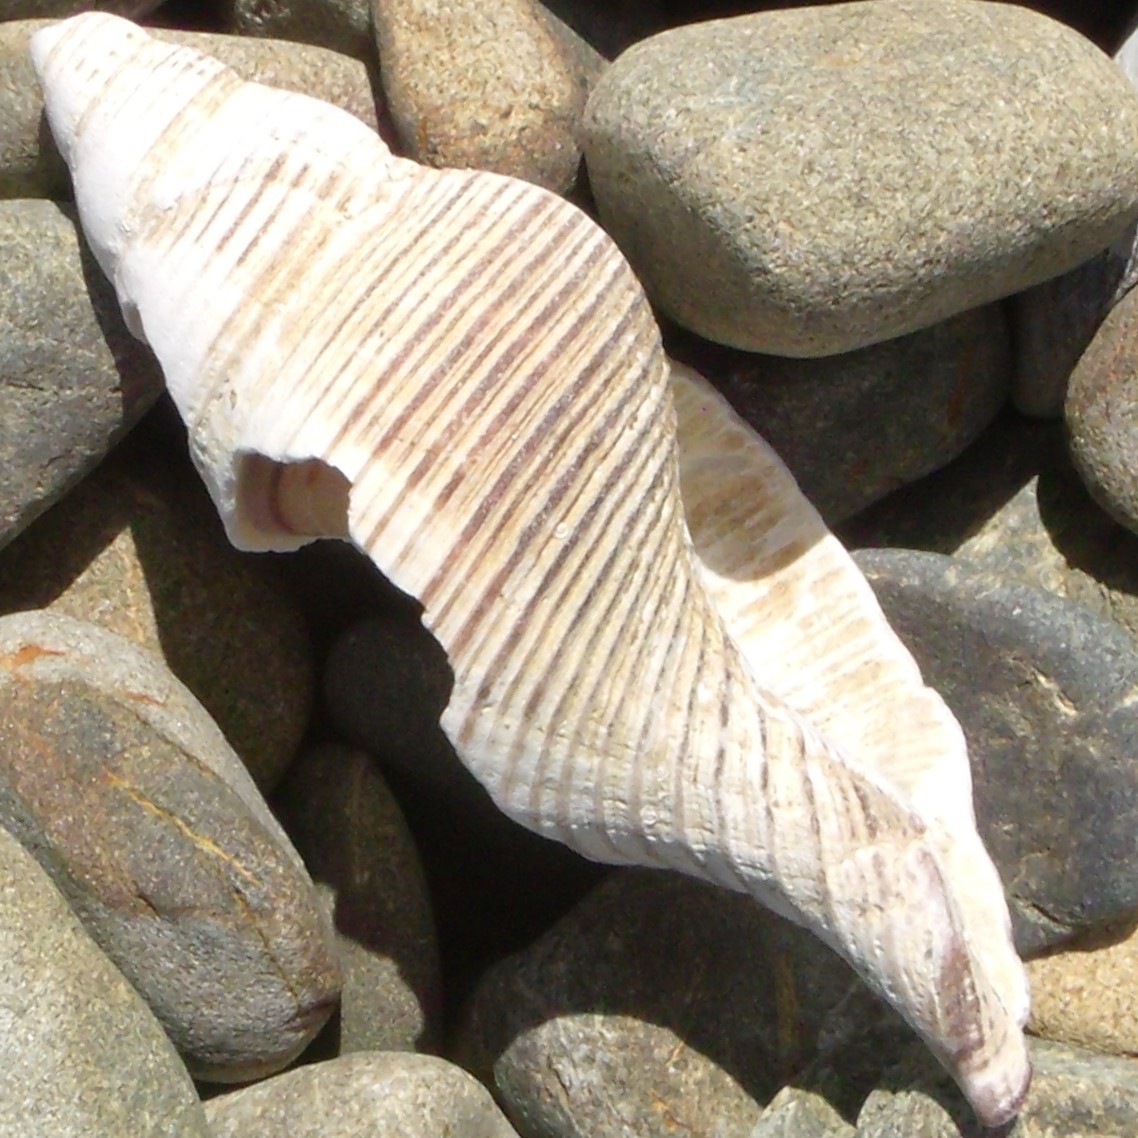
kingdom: Animalia
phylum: Mollusca
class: Gastropoda
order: Neogastropoda
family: Austrosiphonidae
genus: Penion
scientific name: Penion sulcatus
